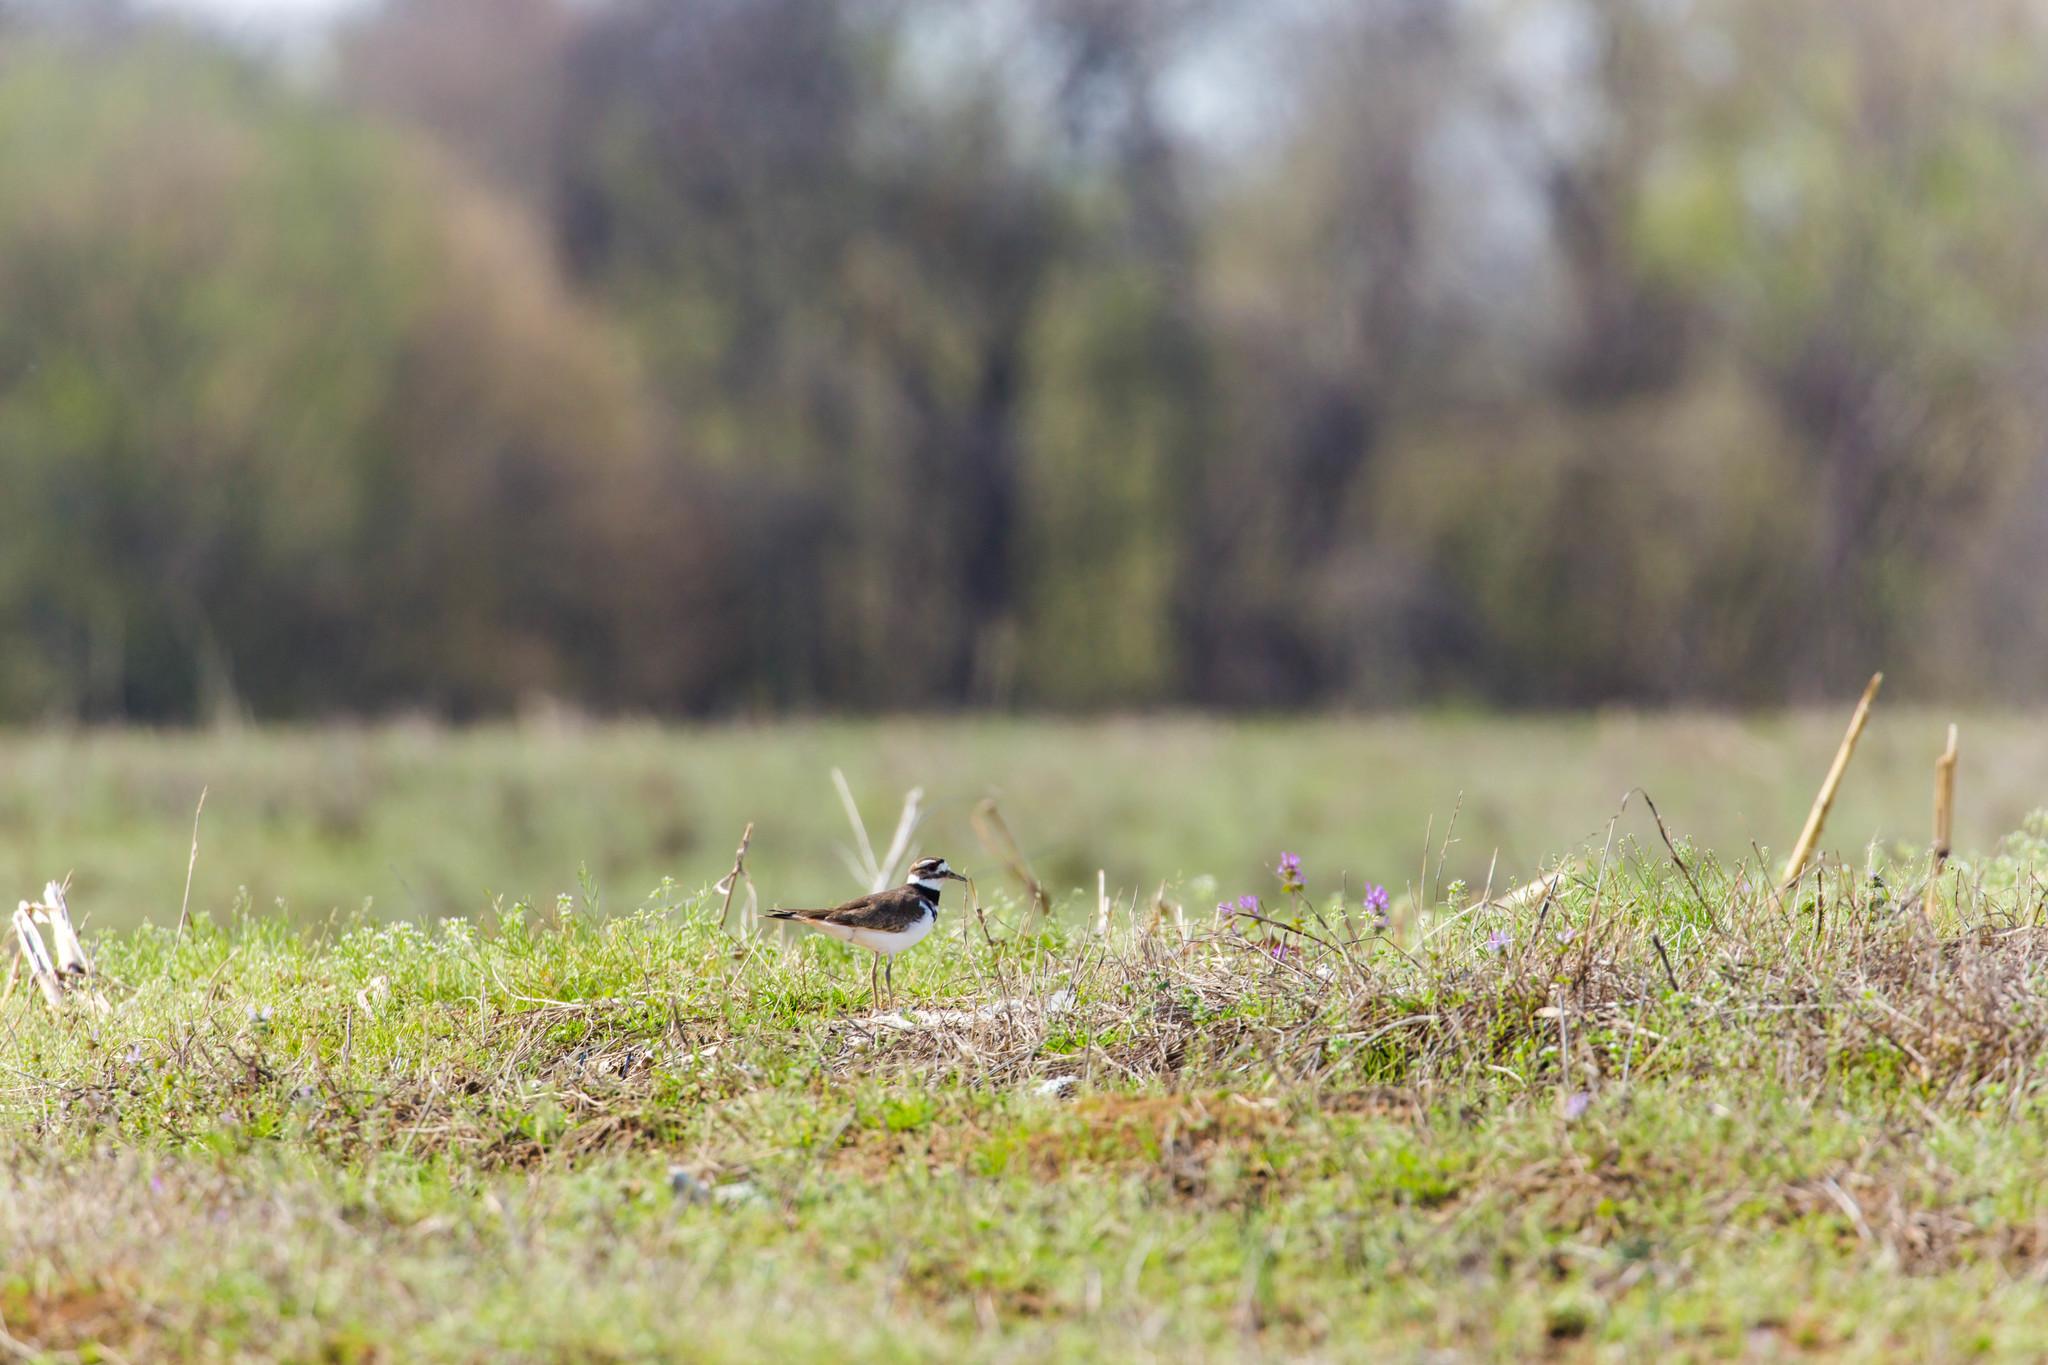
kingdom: Animalia
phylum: Chordata
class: Aves
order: Charadriiformes
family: Charadriidae
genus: Charadrius
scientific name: Charadrius vociferus
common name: Killdeer
